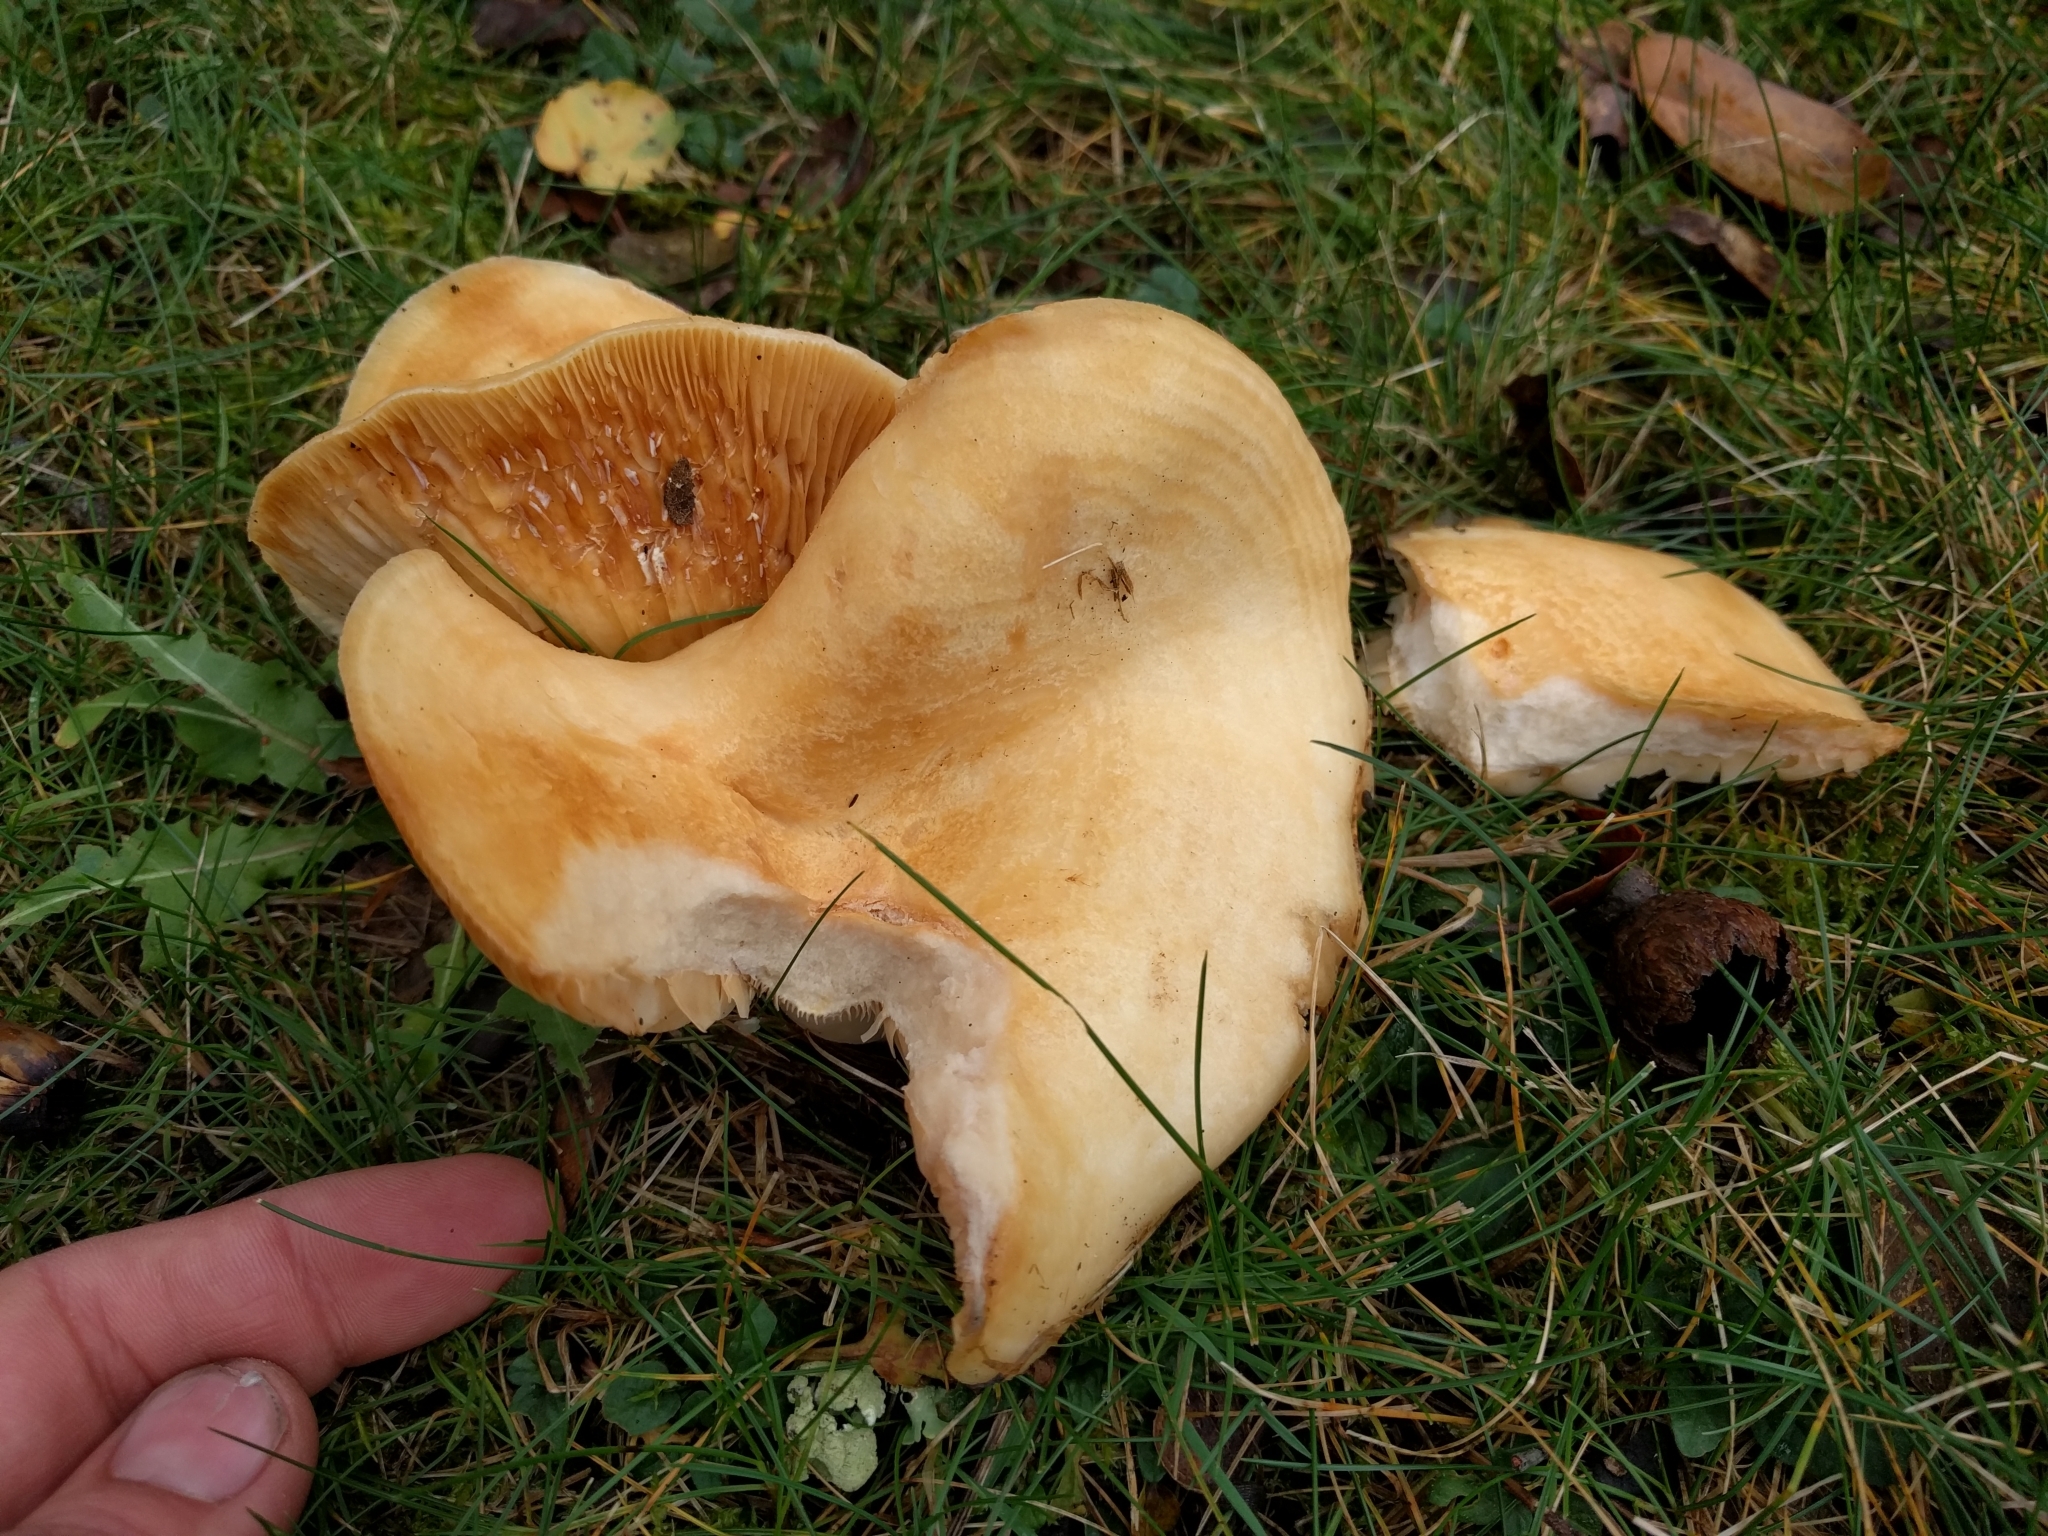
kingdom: Fungi
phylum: Basidiomycota
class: Agaricomycetes
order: Russulales
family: Russulaceae
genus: Lactarius
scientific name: Lactarius alnicola
